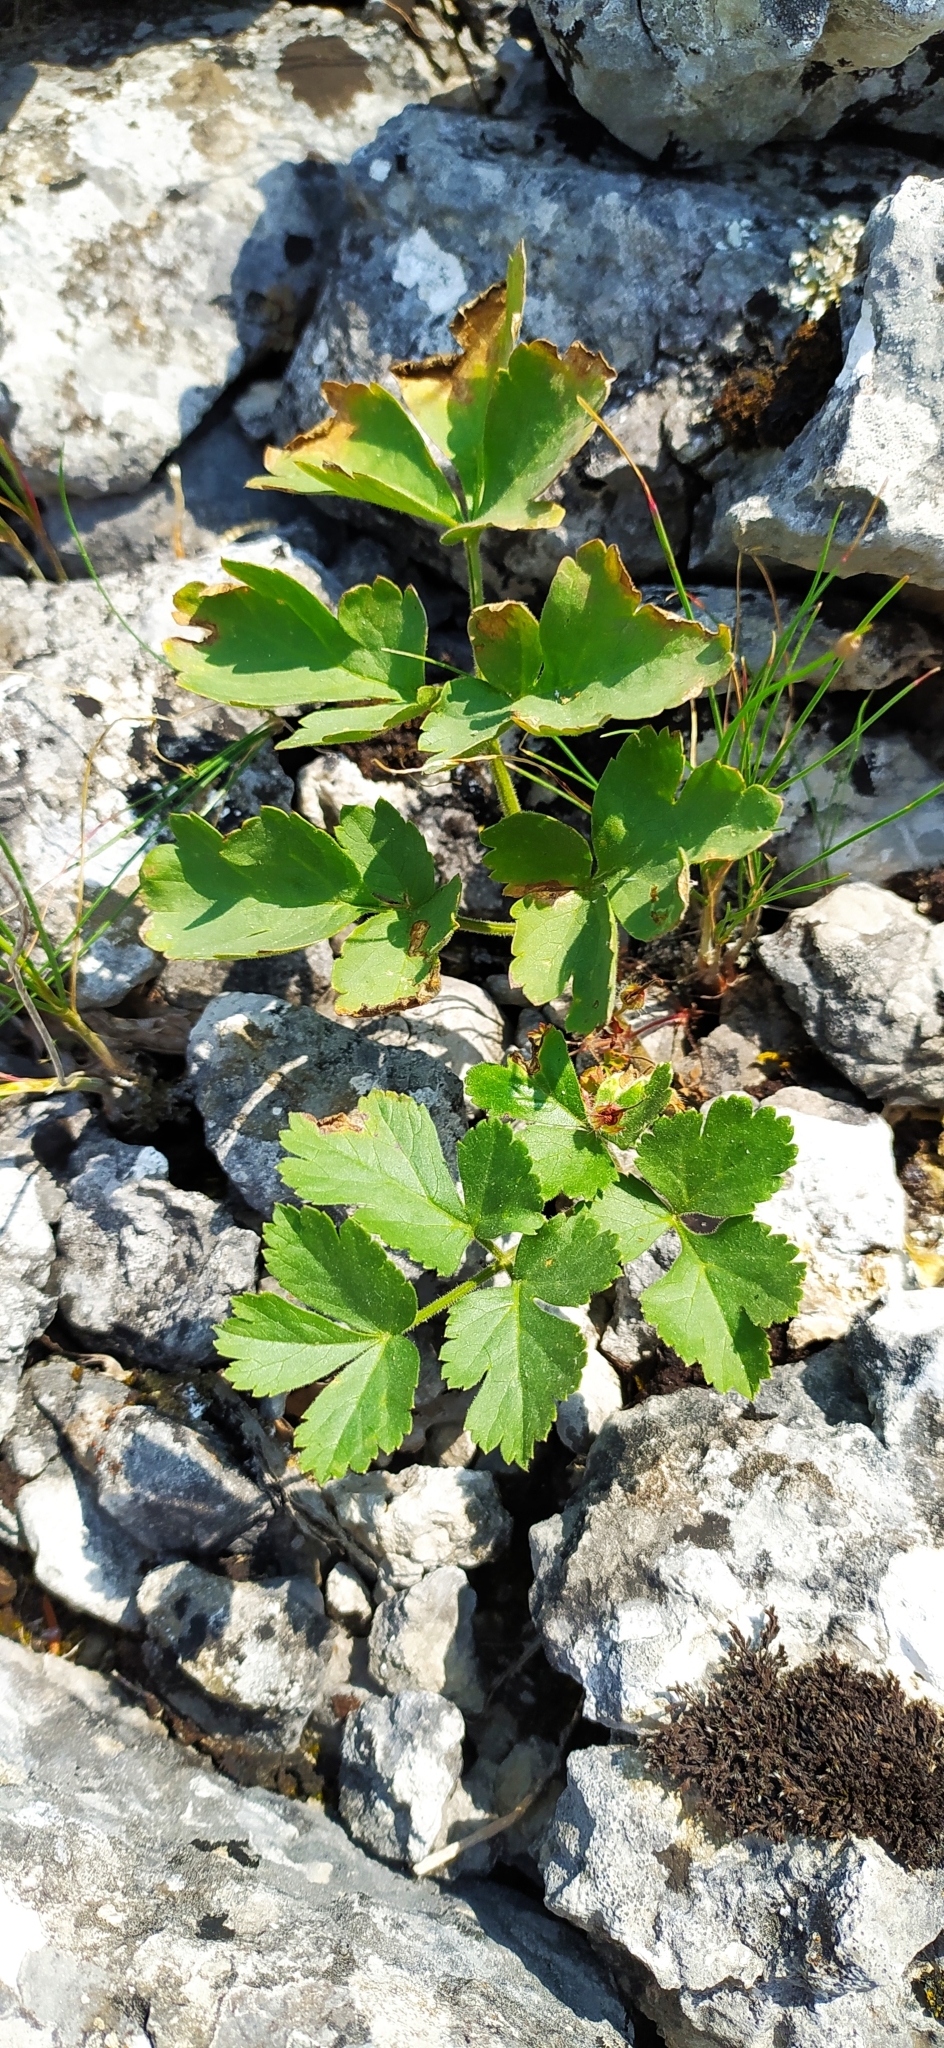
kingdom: Plantae
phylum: Tracheophyta
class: Magnoliopsida
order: Apiales
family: Apiaceae
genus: Heracleum
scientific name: Heracleum ligusticifolium
